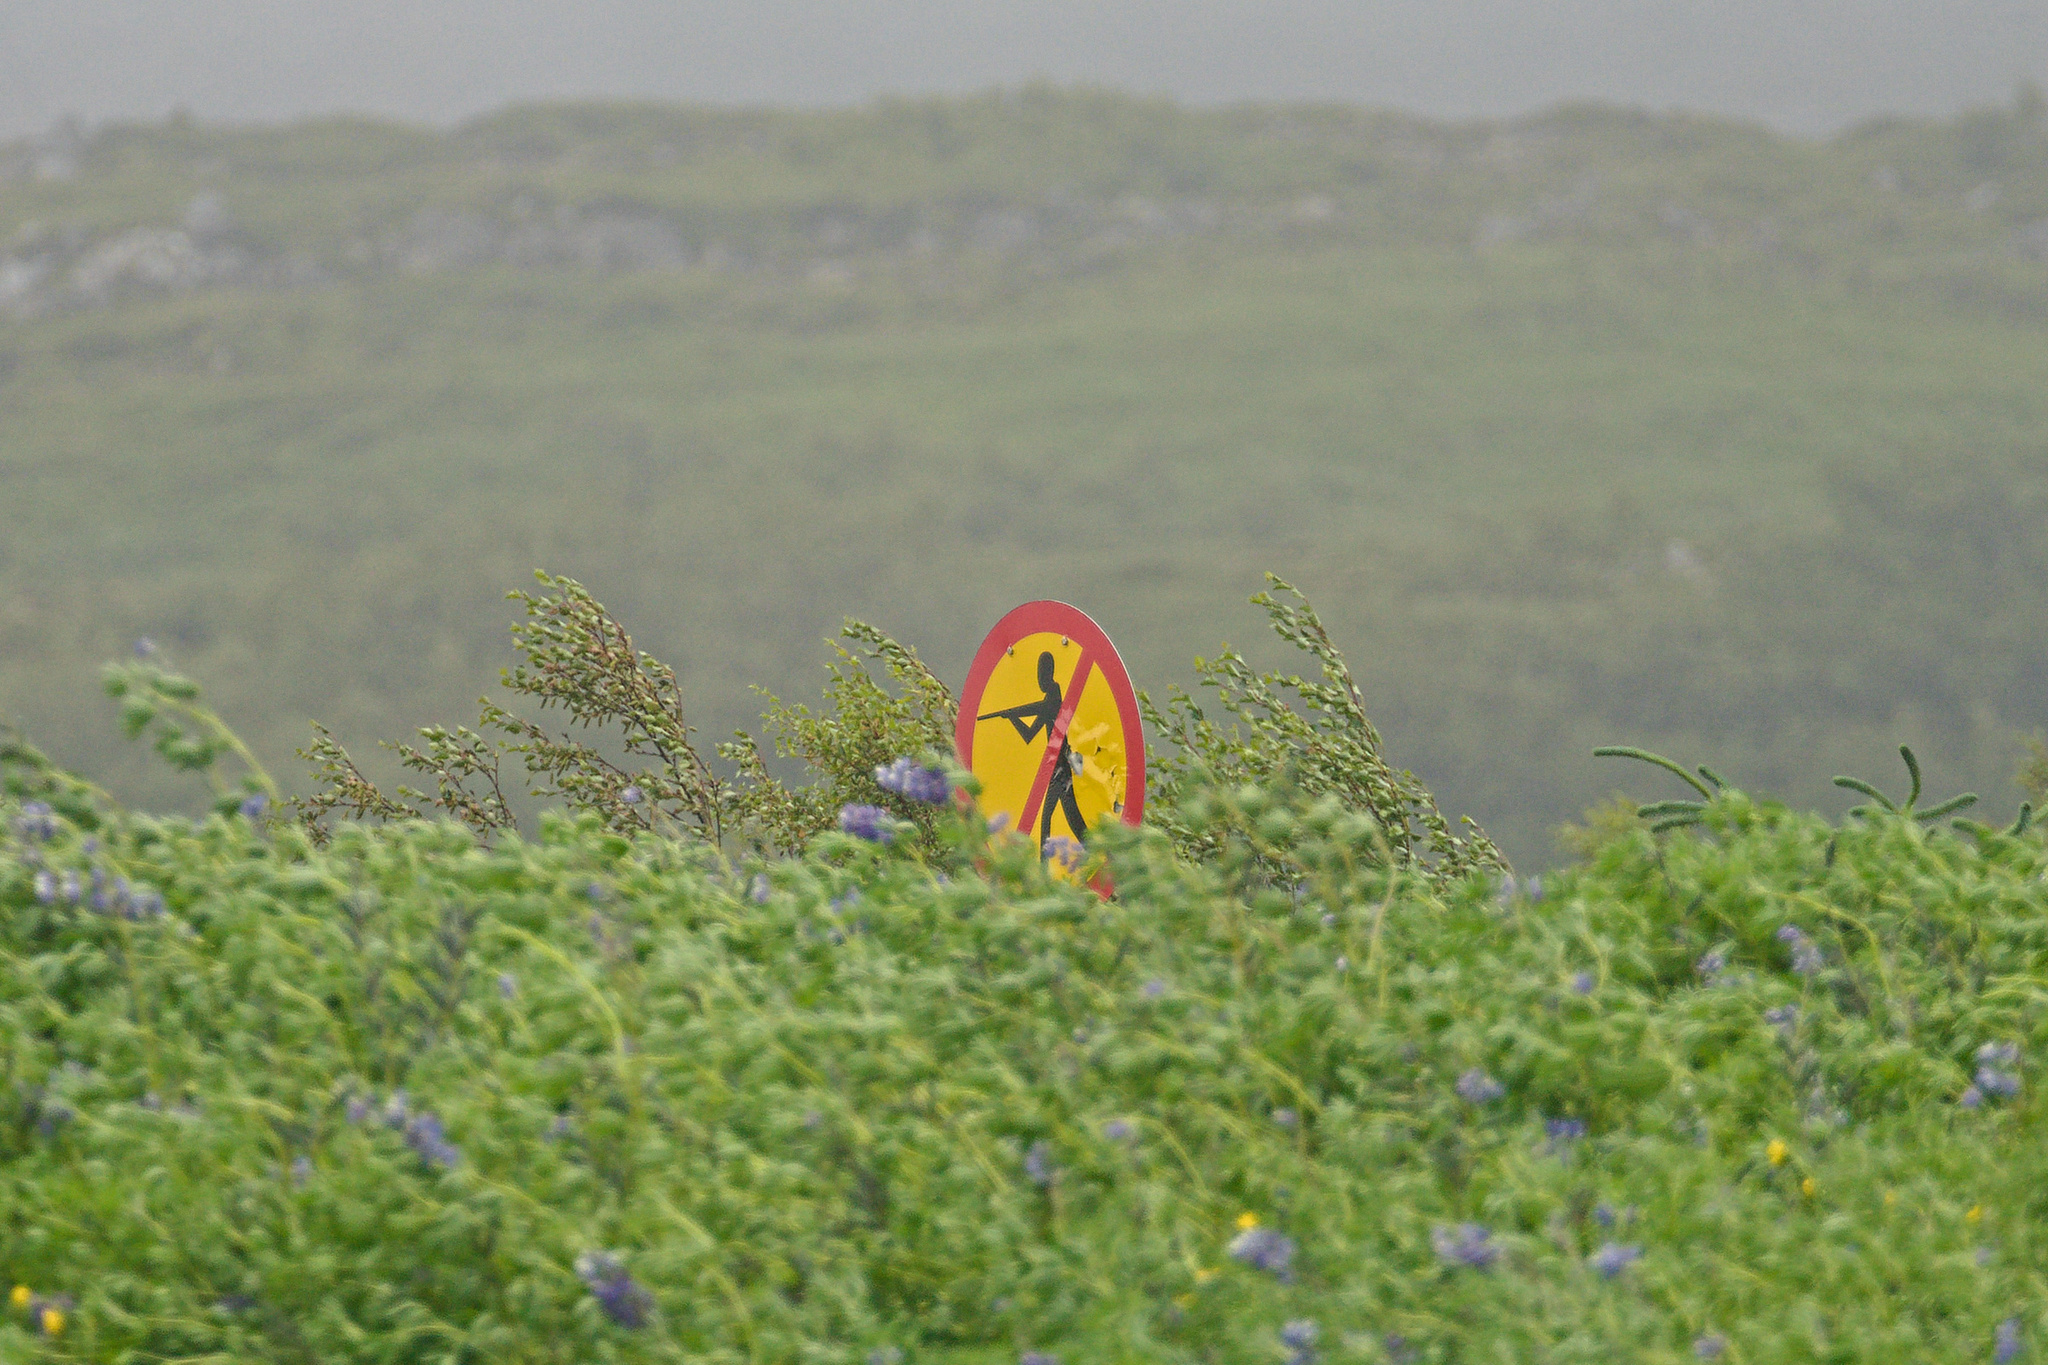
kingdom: Plantae
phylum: Tracheophyta
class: Magnoliopsida
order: Fabales
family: Fabaceae
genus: Lupinus
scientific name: Lupinus nootkatensis
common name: Nootka lupine
